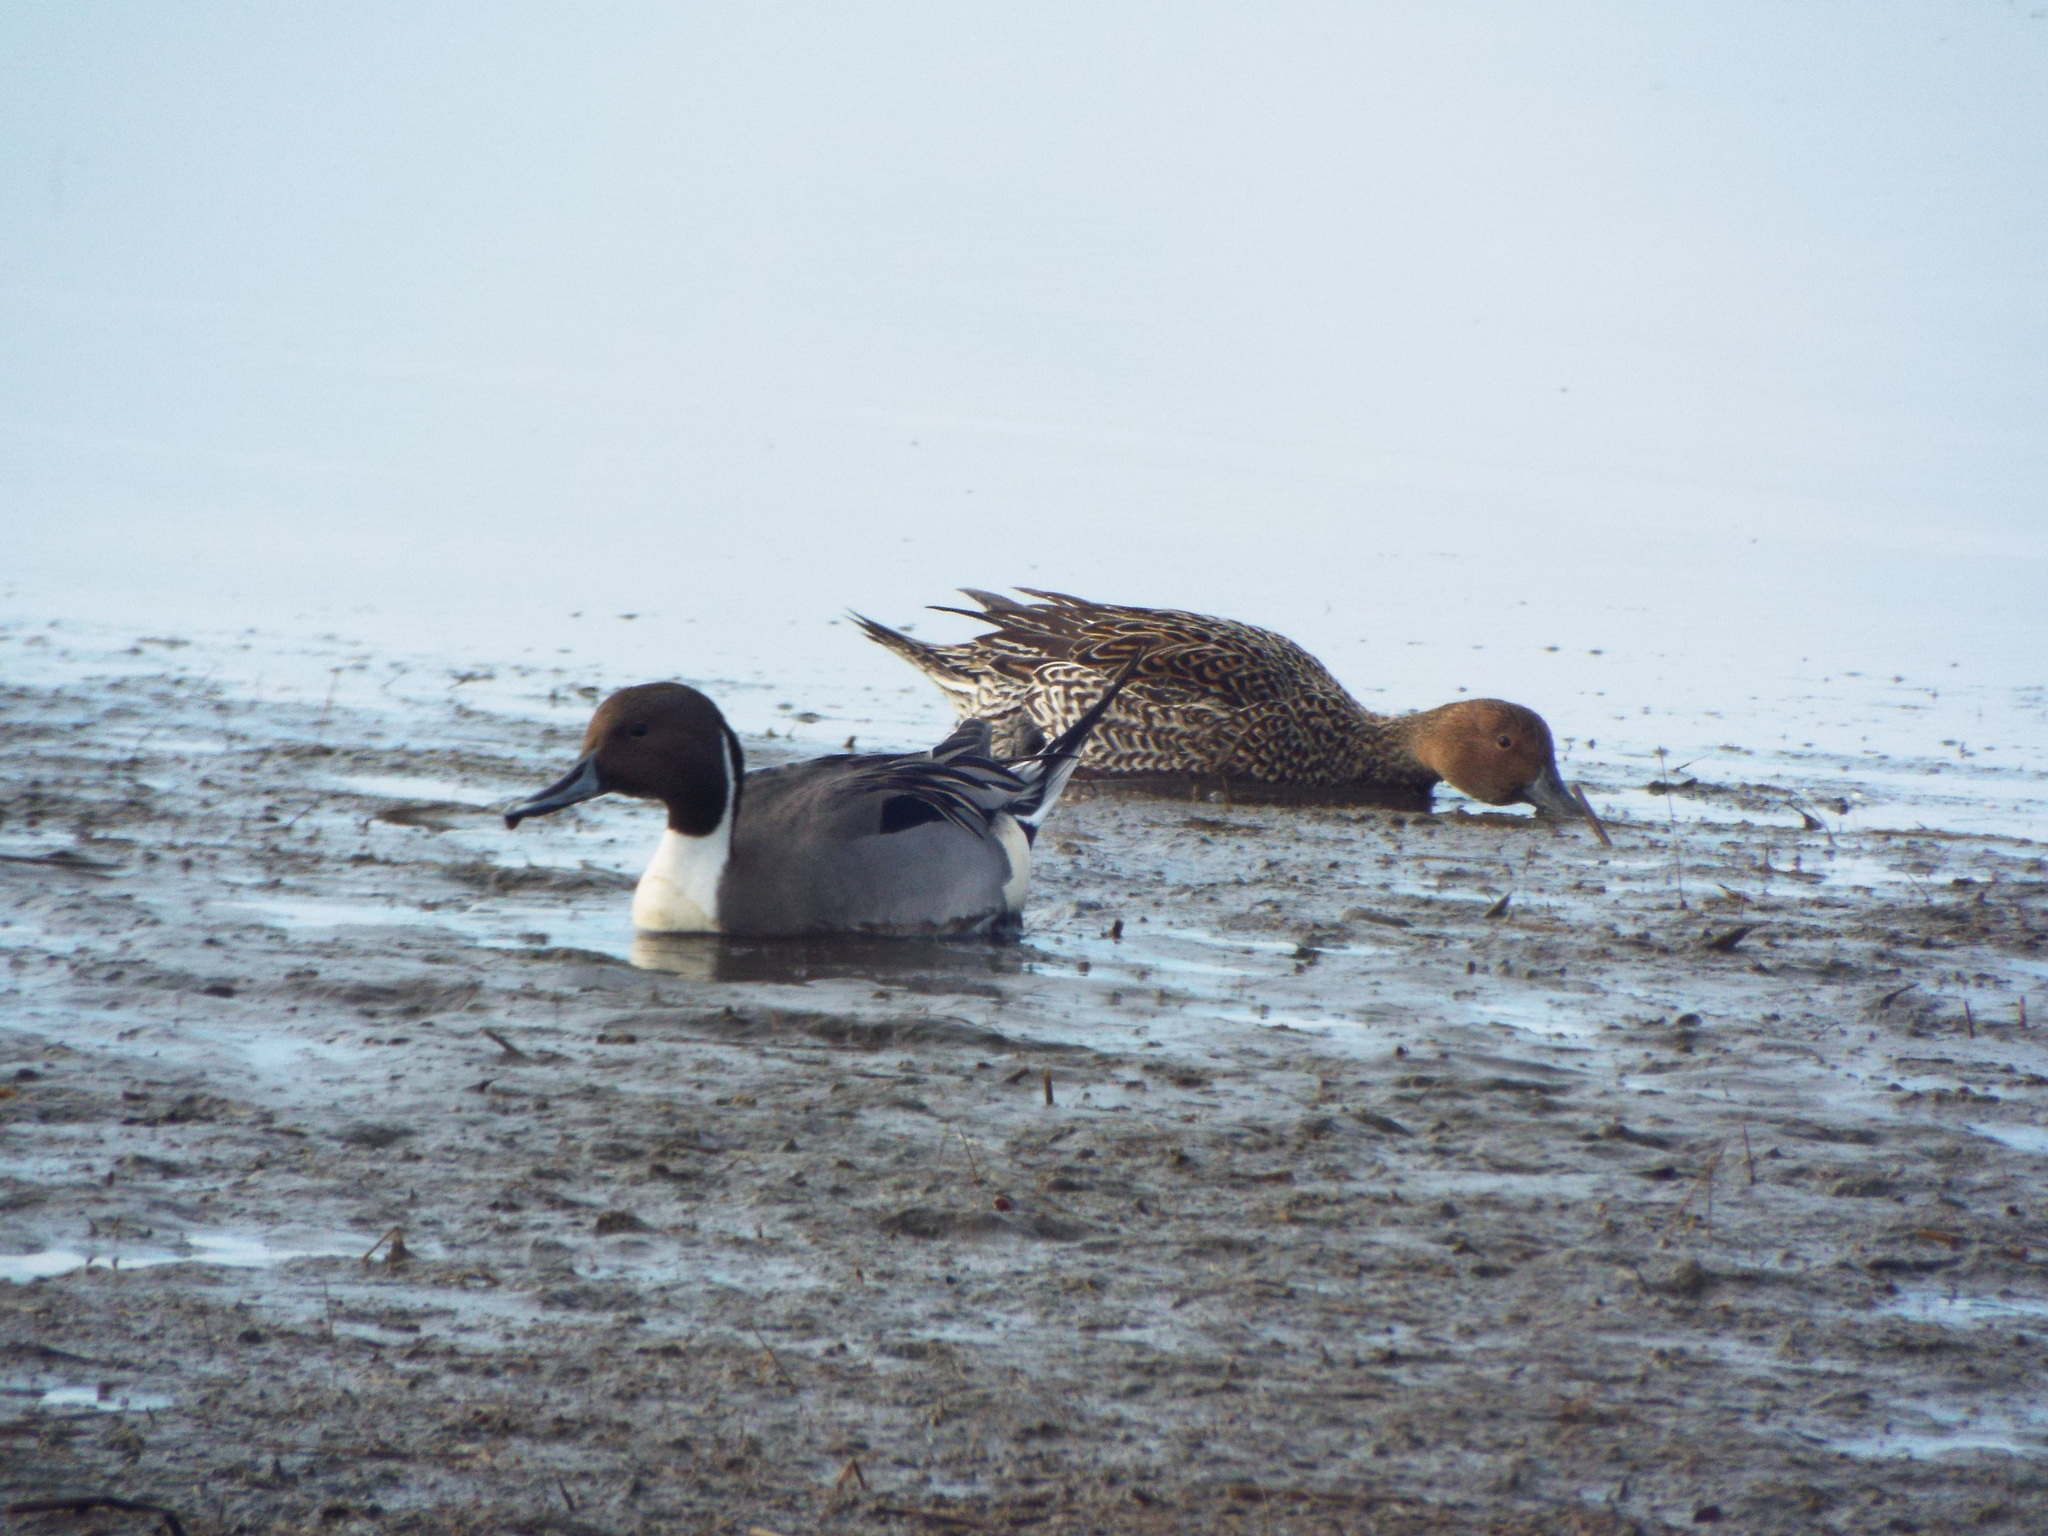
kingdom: Animalia
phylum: Chordata
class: Aves
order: Anseriformes
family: Anatidae
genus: Anas
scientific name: Anas acuta
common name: Northern pintail
